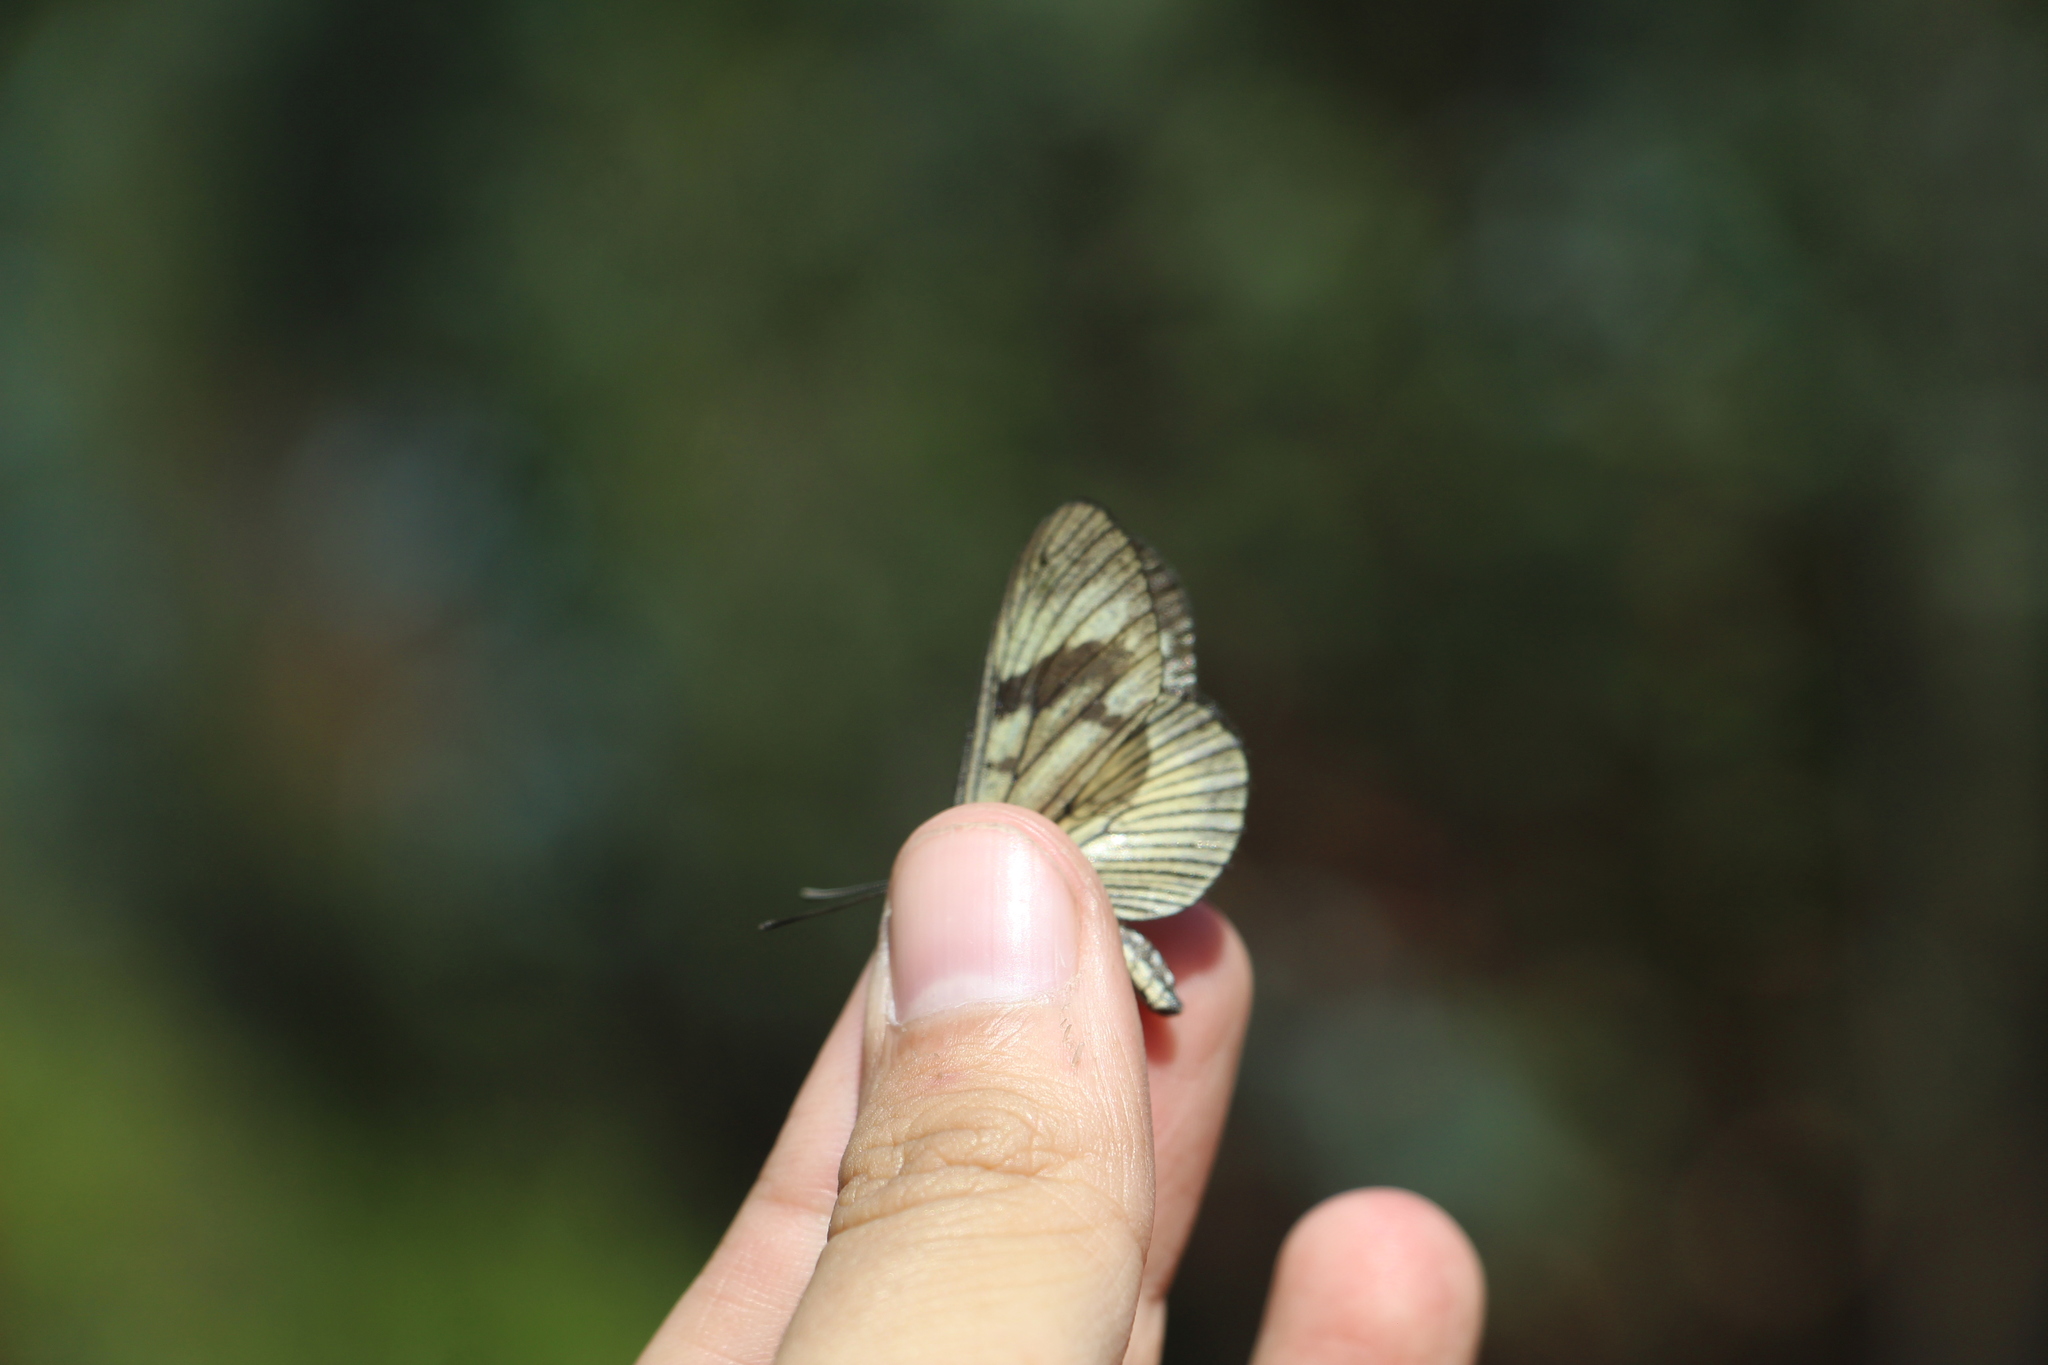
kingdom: Animalia
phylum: Arthropoda
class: Insecta
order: Lepidoptera
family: Nymphalidae
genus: Actinote
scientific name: Actinote anteas
